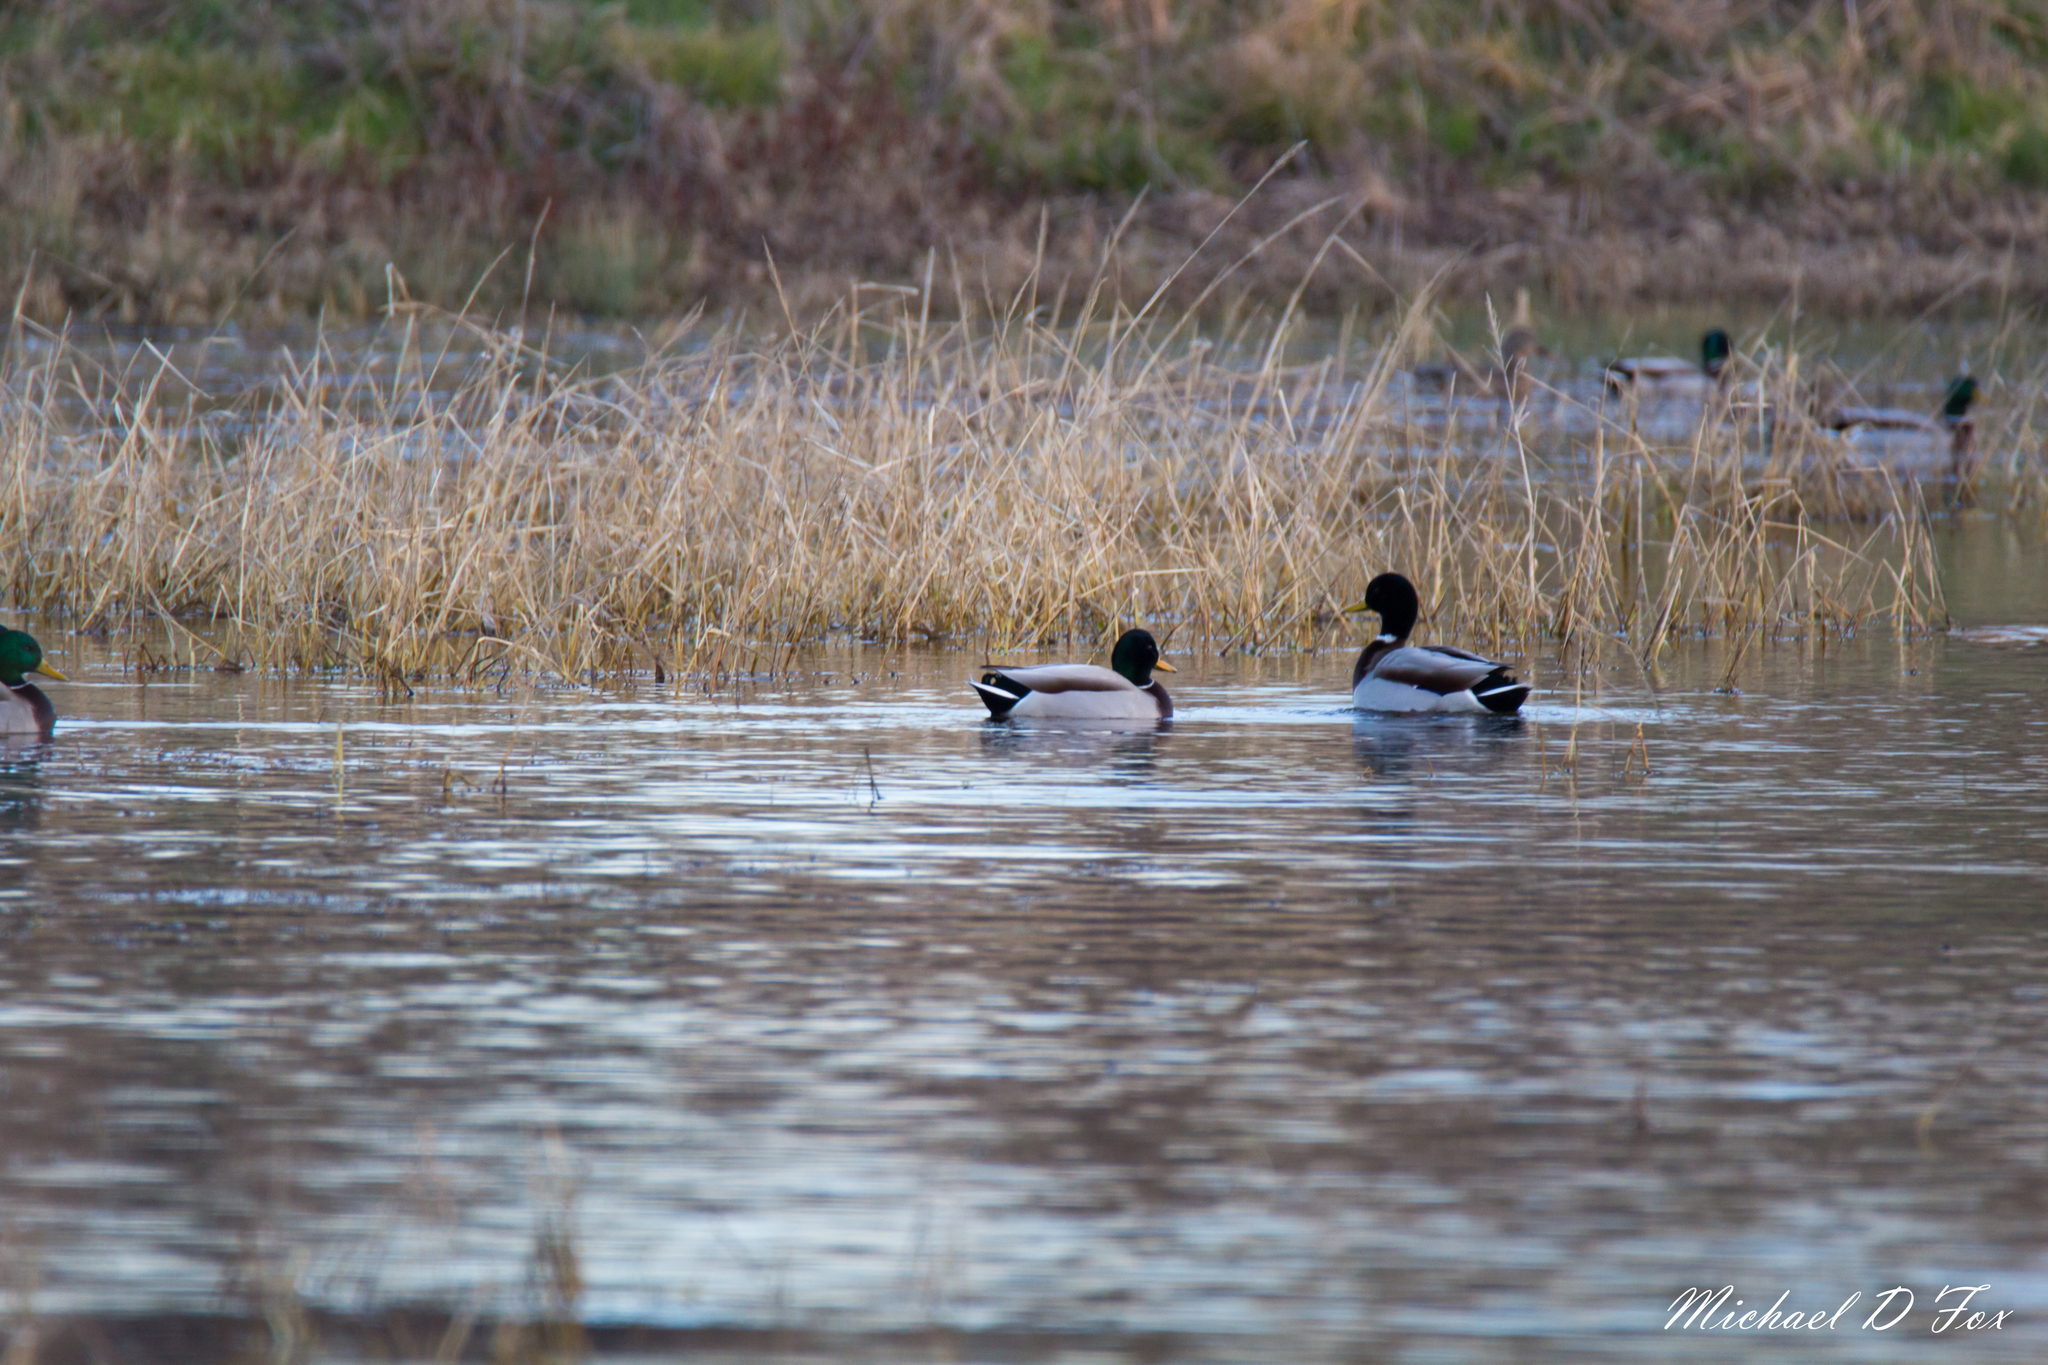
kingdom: Animalia
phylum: Chordata
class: Aves
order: Anseriformes
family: Anatidae
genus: Anas
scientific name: Anas platyrhynchos
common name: Mallard
